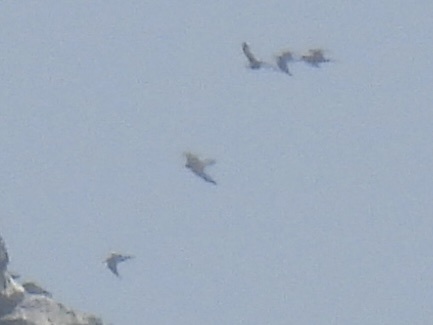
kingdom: Animalia
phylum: Chordata
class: Aves
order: Charadriiformes
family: Laridae
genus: Anous
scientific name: Anous minutus
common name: Black noddy
